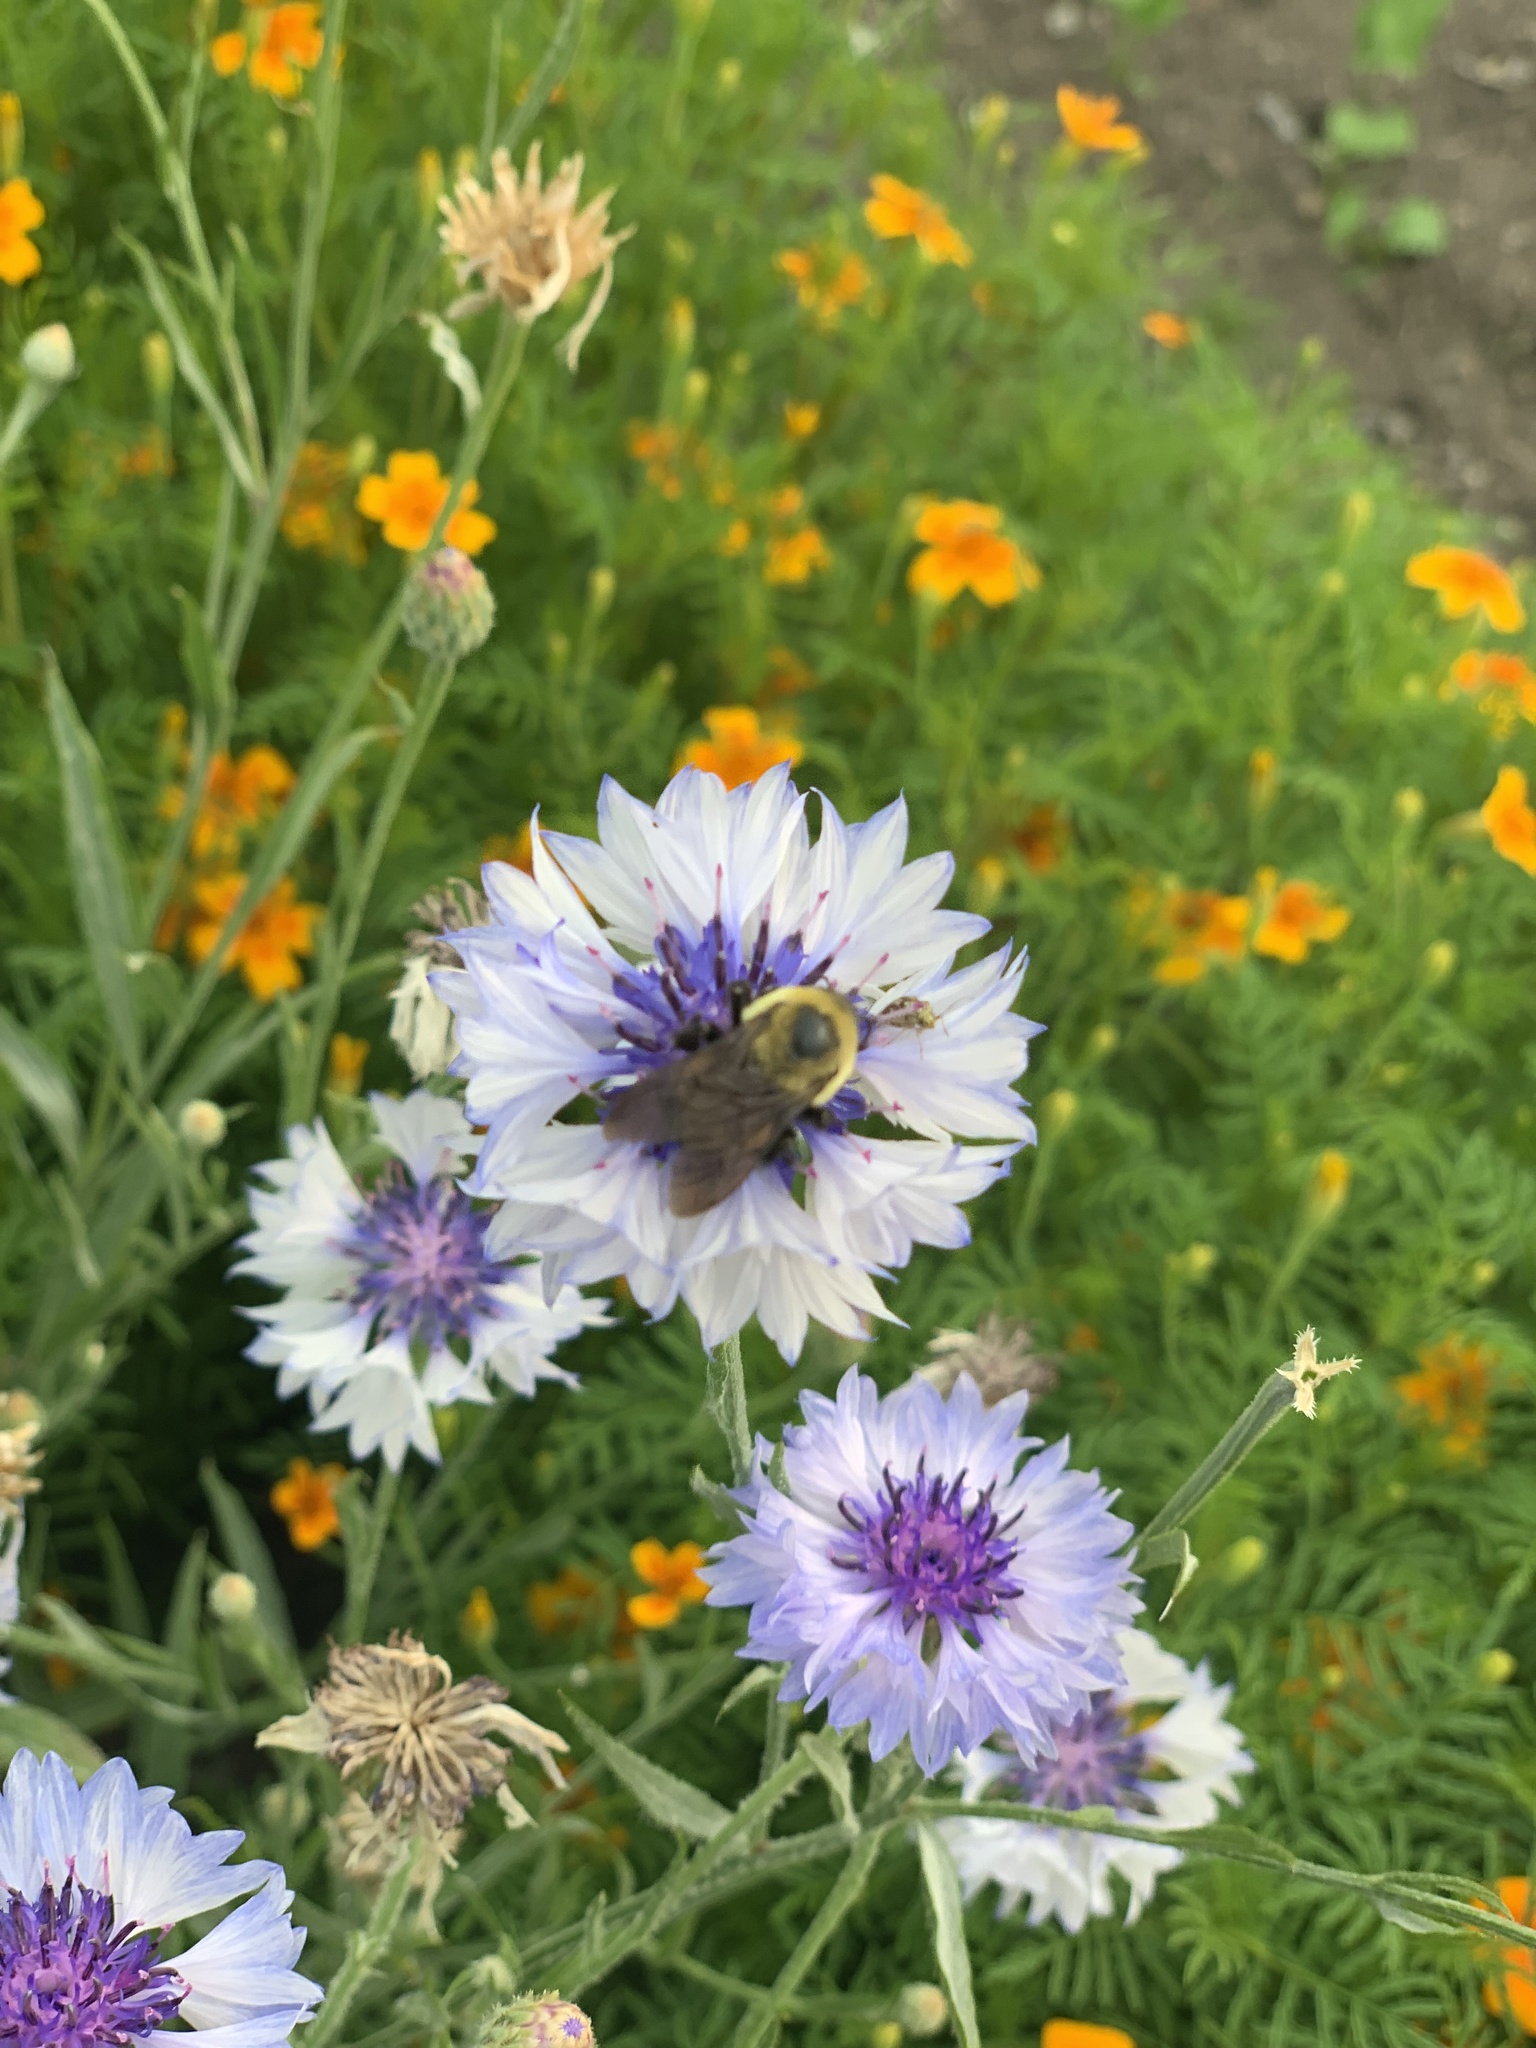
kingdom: Animalia
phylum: Arthropoda
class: Insecta
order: Hymenoptera
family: Apidae
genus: Bombus
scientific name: Bombus griseocollis
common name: Brown-belted bumble bee
